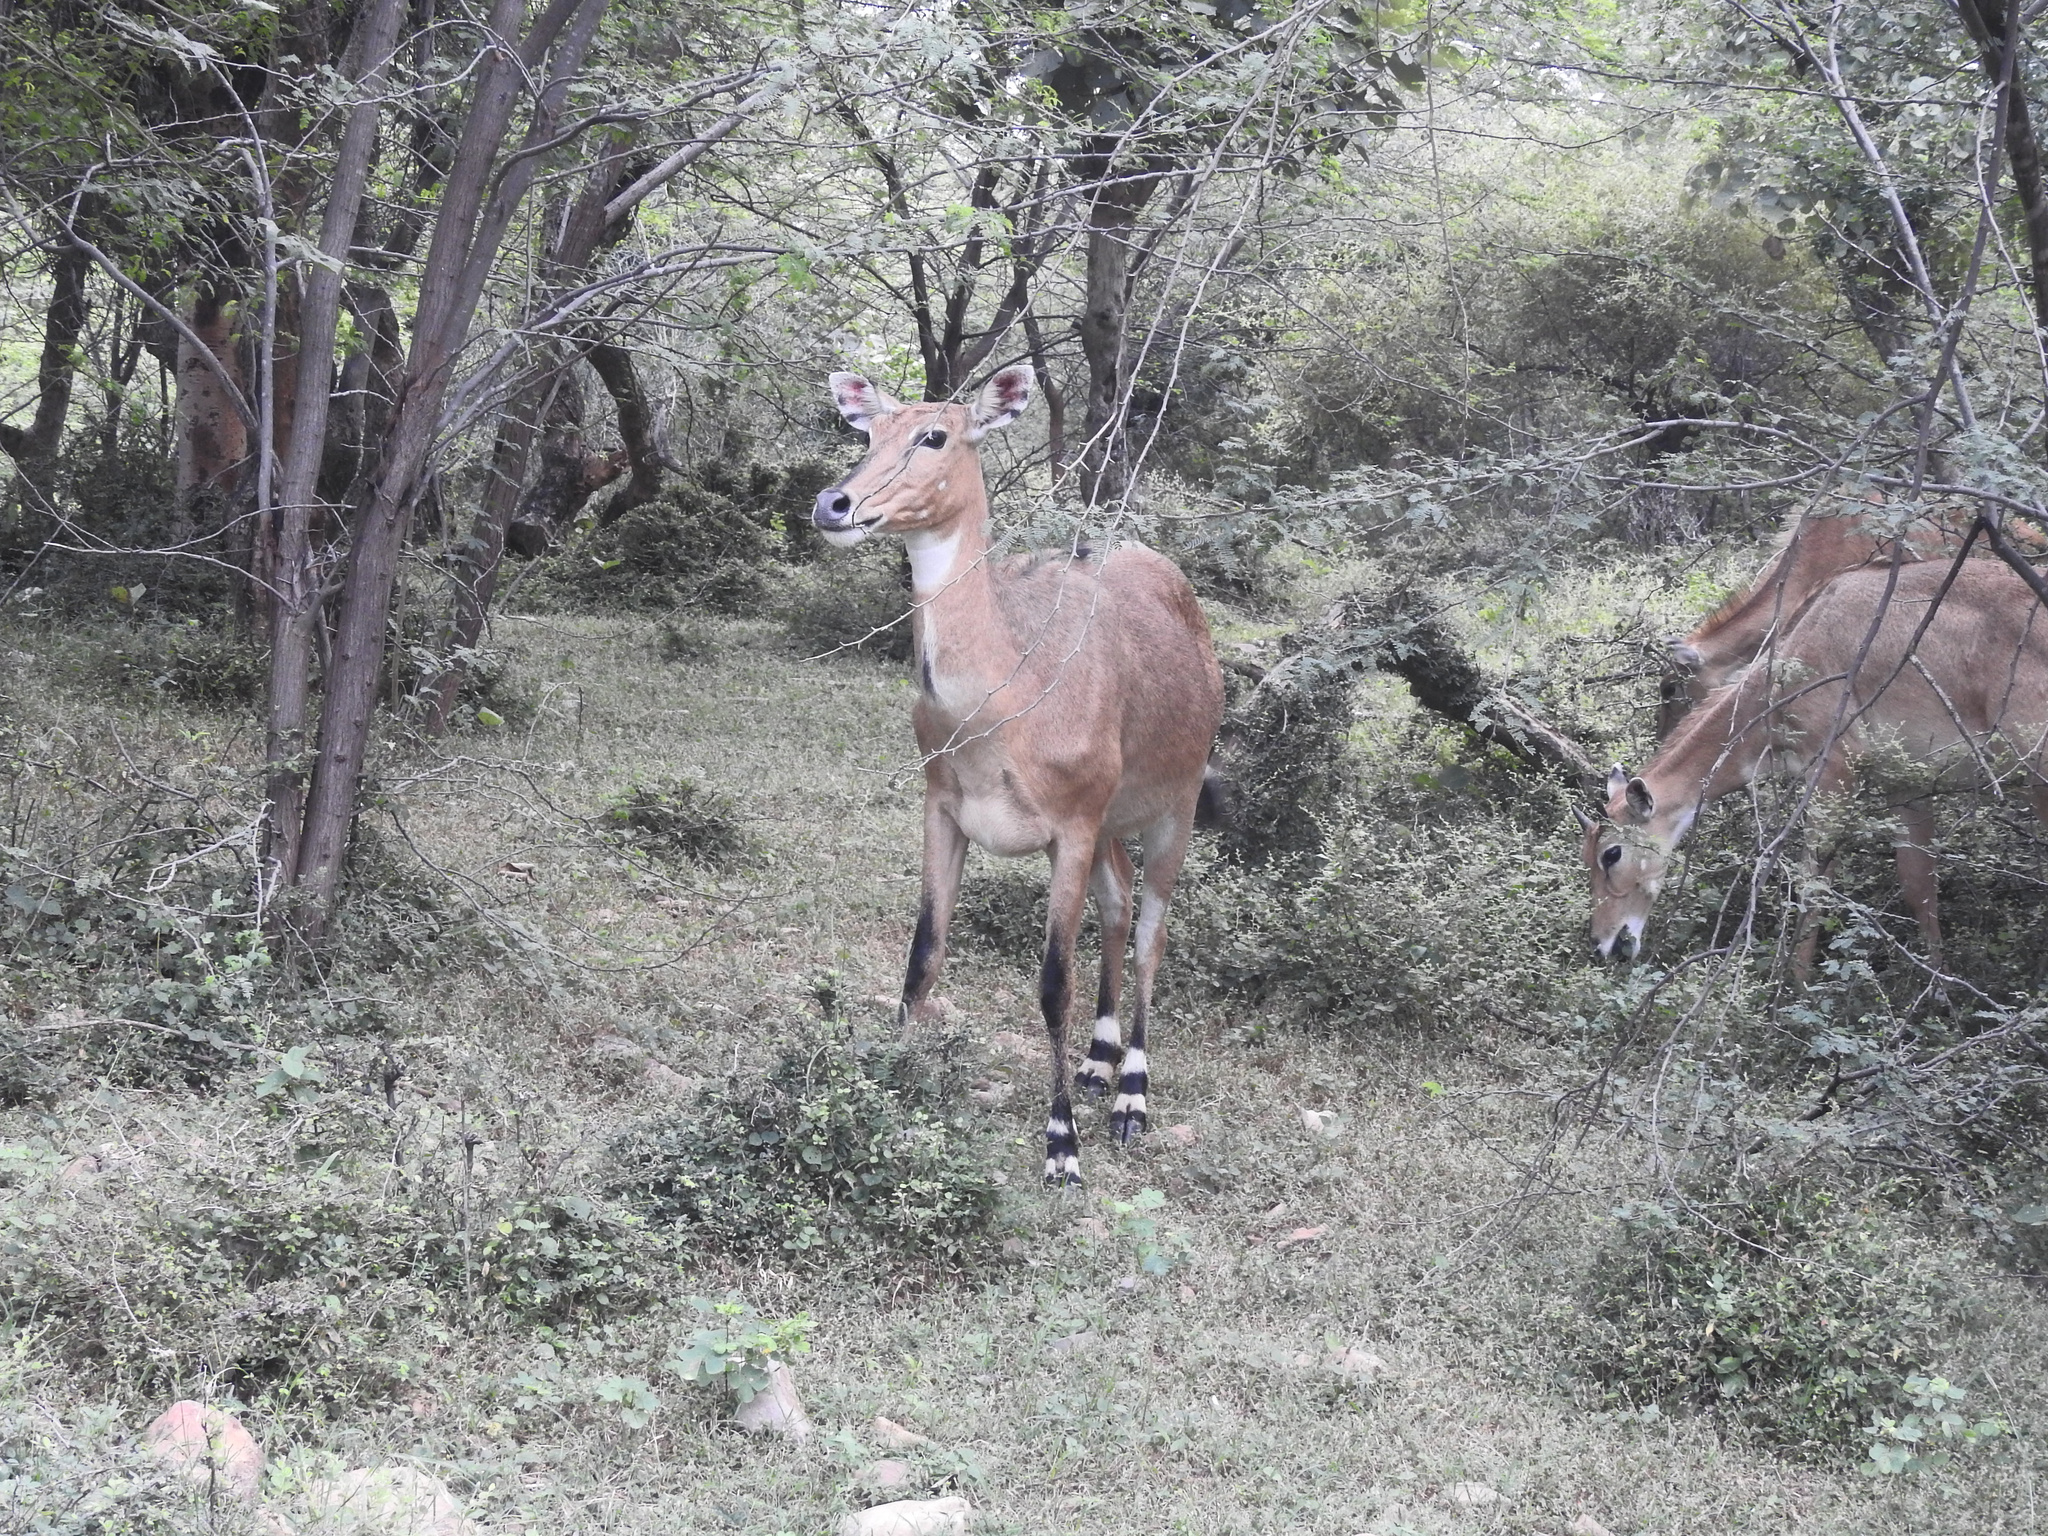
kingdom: Animalia
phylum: Chordata
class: Mammalia
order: Artiodactyla
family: Bovidae
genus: Boselaphus
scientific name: Boselaphus tragocamelus
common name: Nilgai
